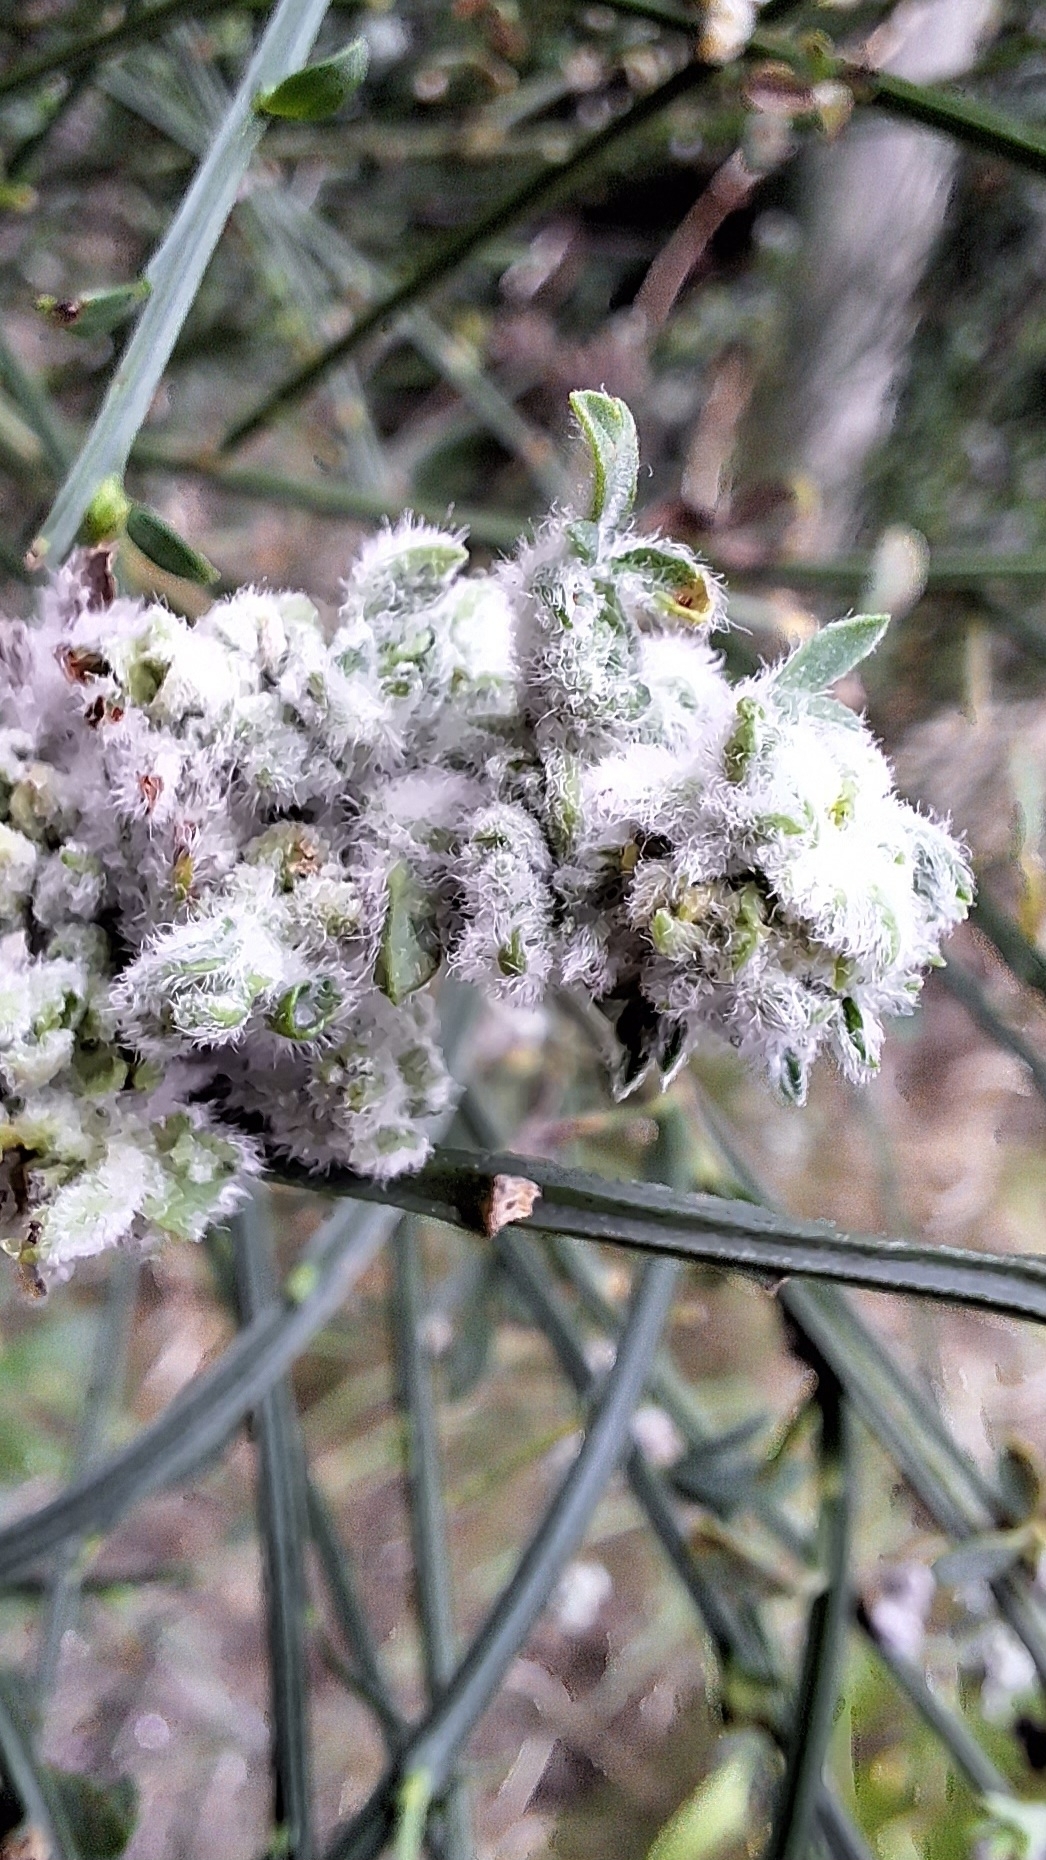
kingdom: Animalia
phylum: Arthropoda
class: Arachnida
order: Trombidiformes
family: Eriophyidae
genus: Aceria
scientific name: Aceria genistae
